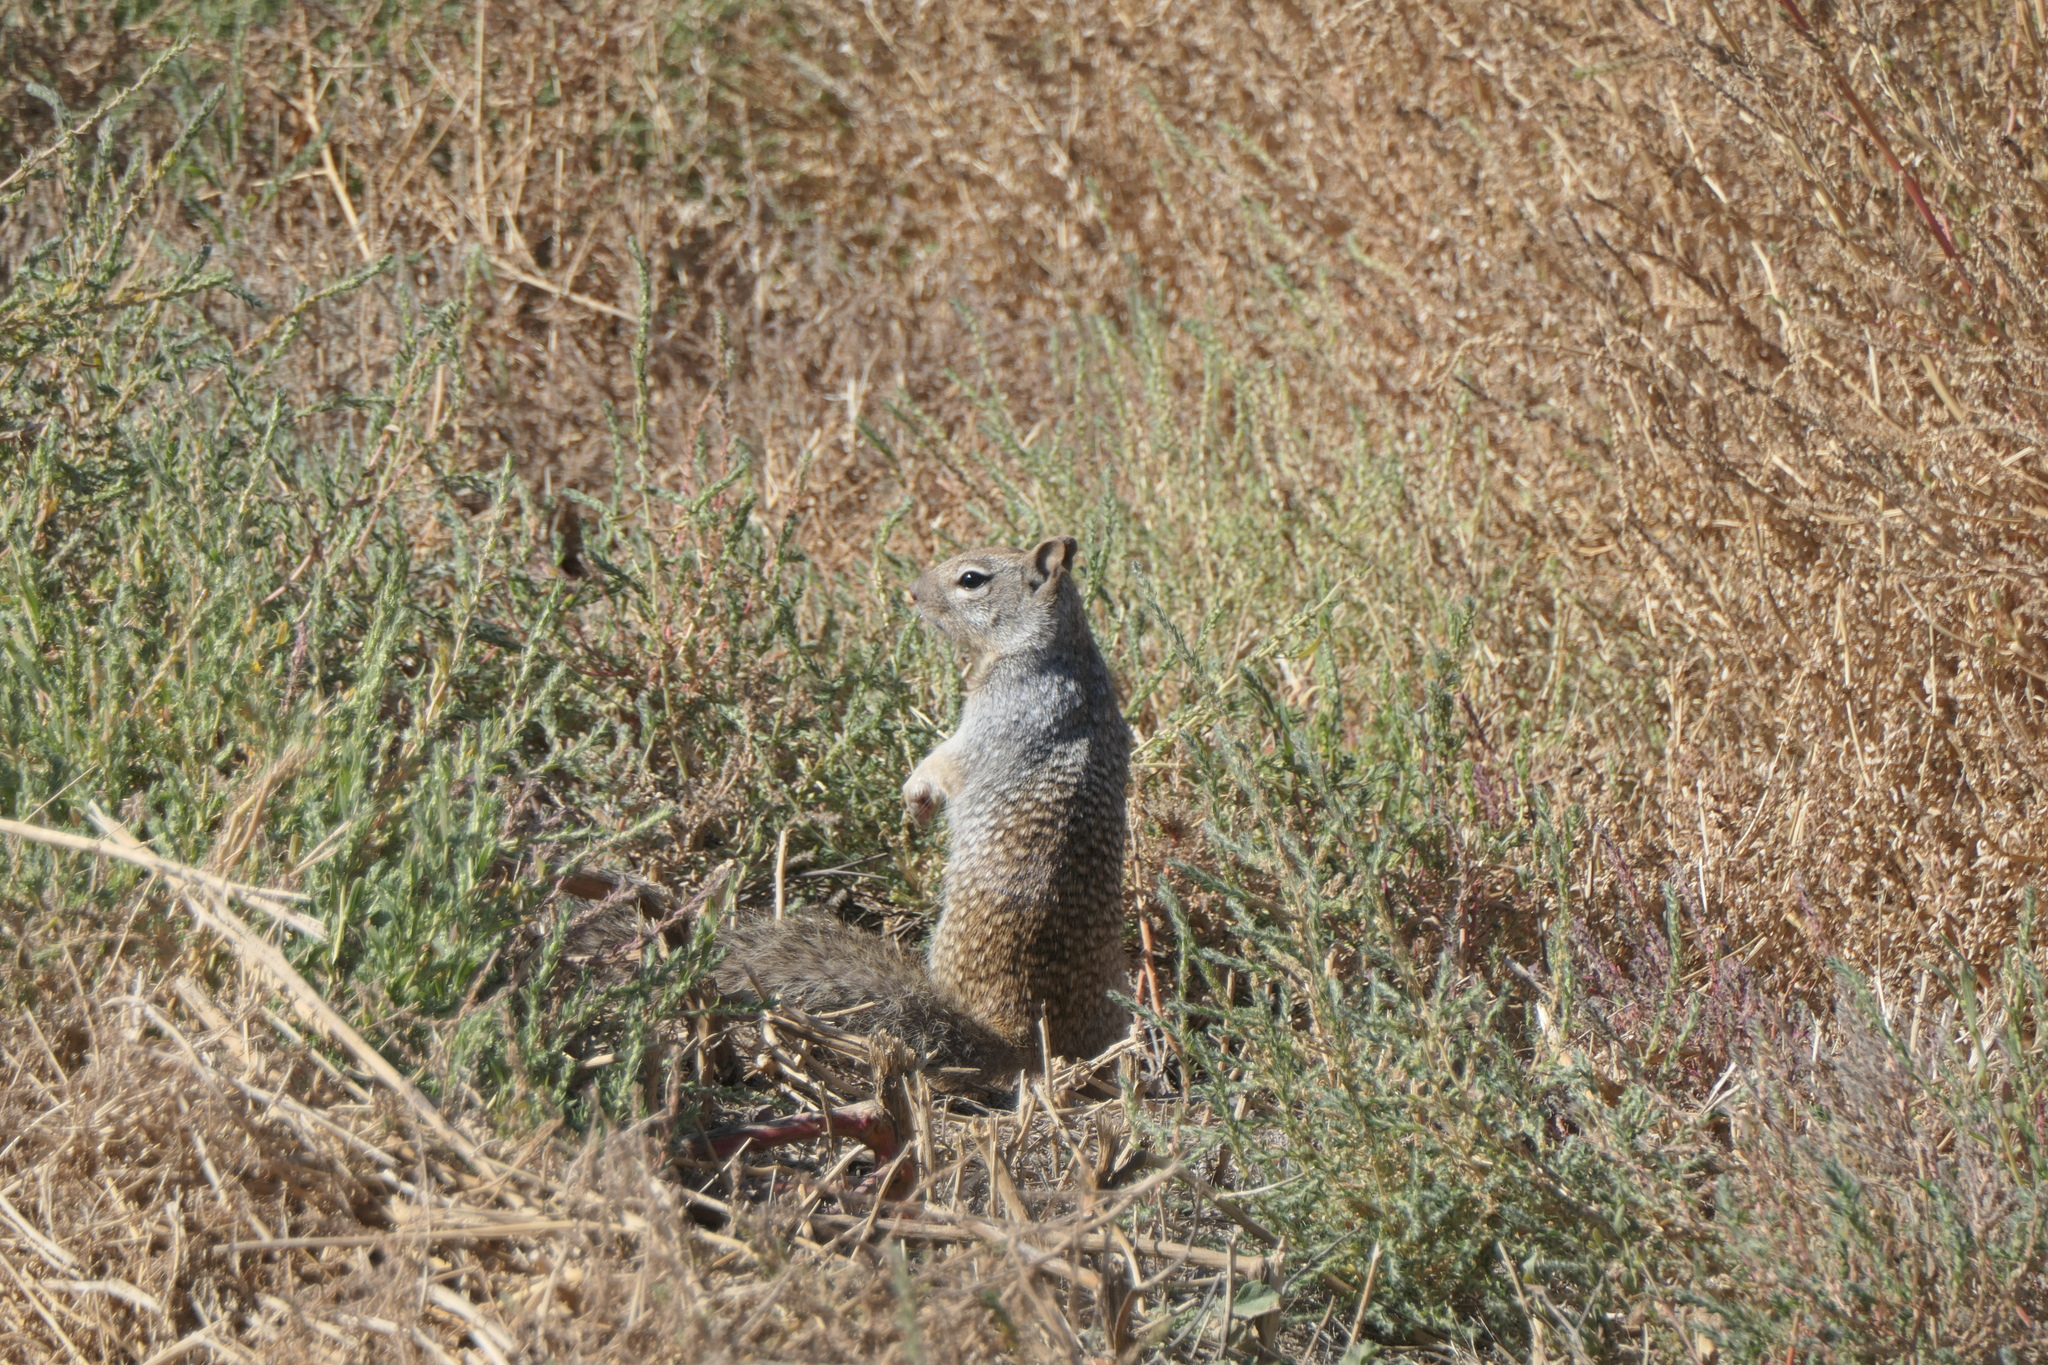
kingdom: Animalia
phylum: Chordata
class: Mammalia
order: Rodentia
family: Sciuridae
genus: Otospermophilus
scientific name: Otospermophilus variegatus
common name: Rock squirrel
